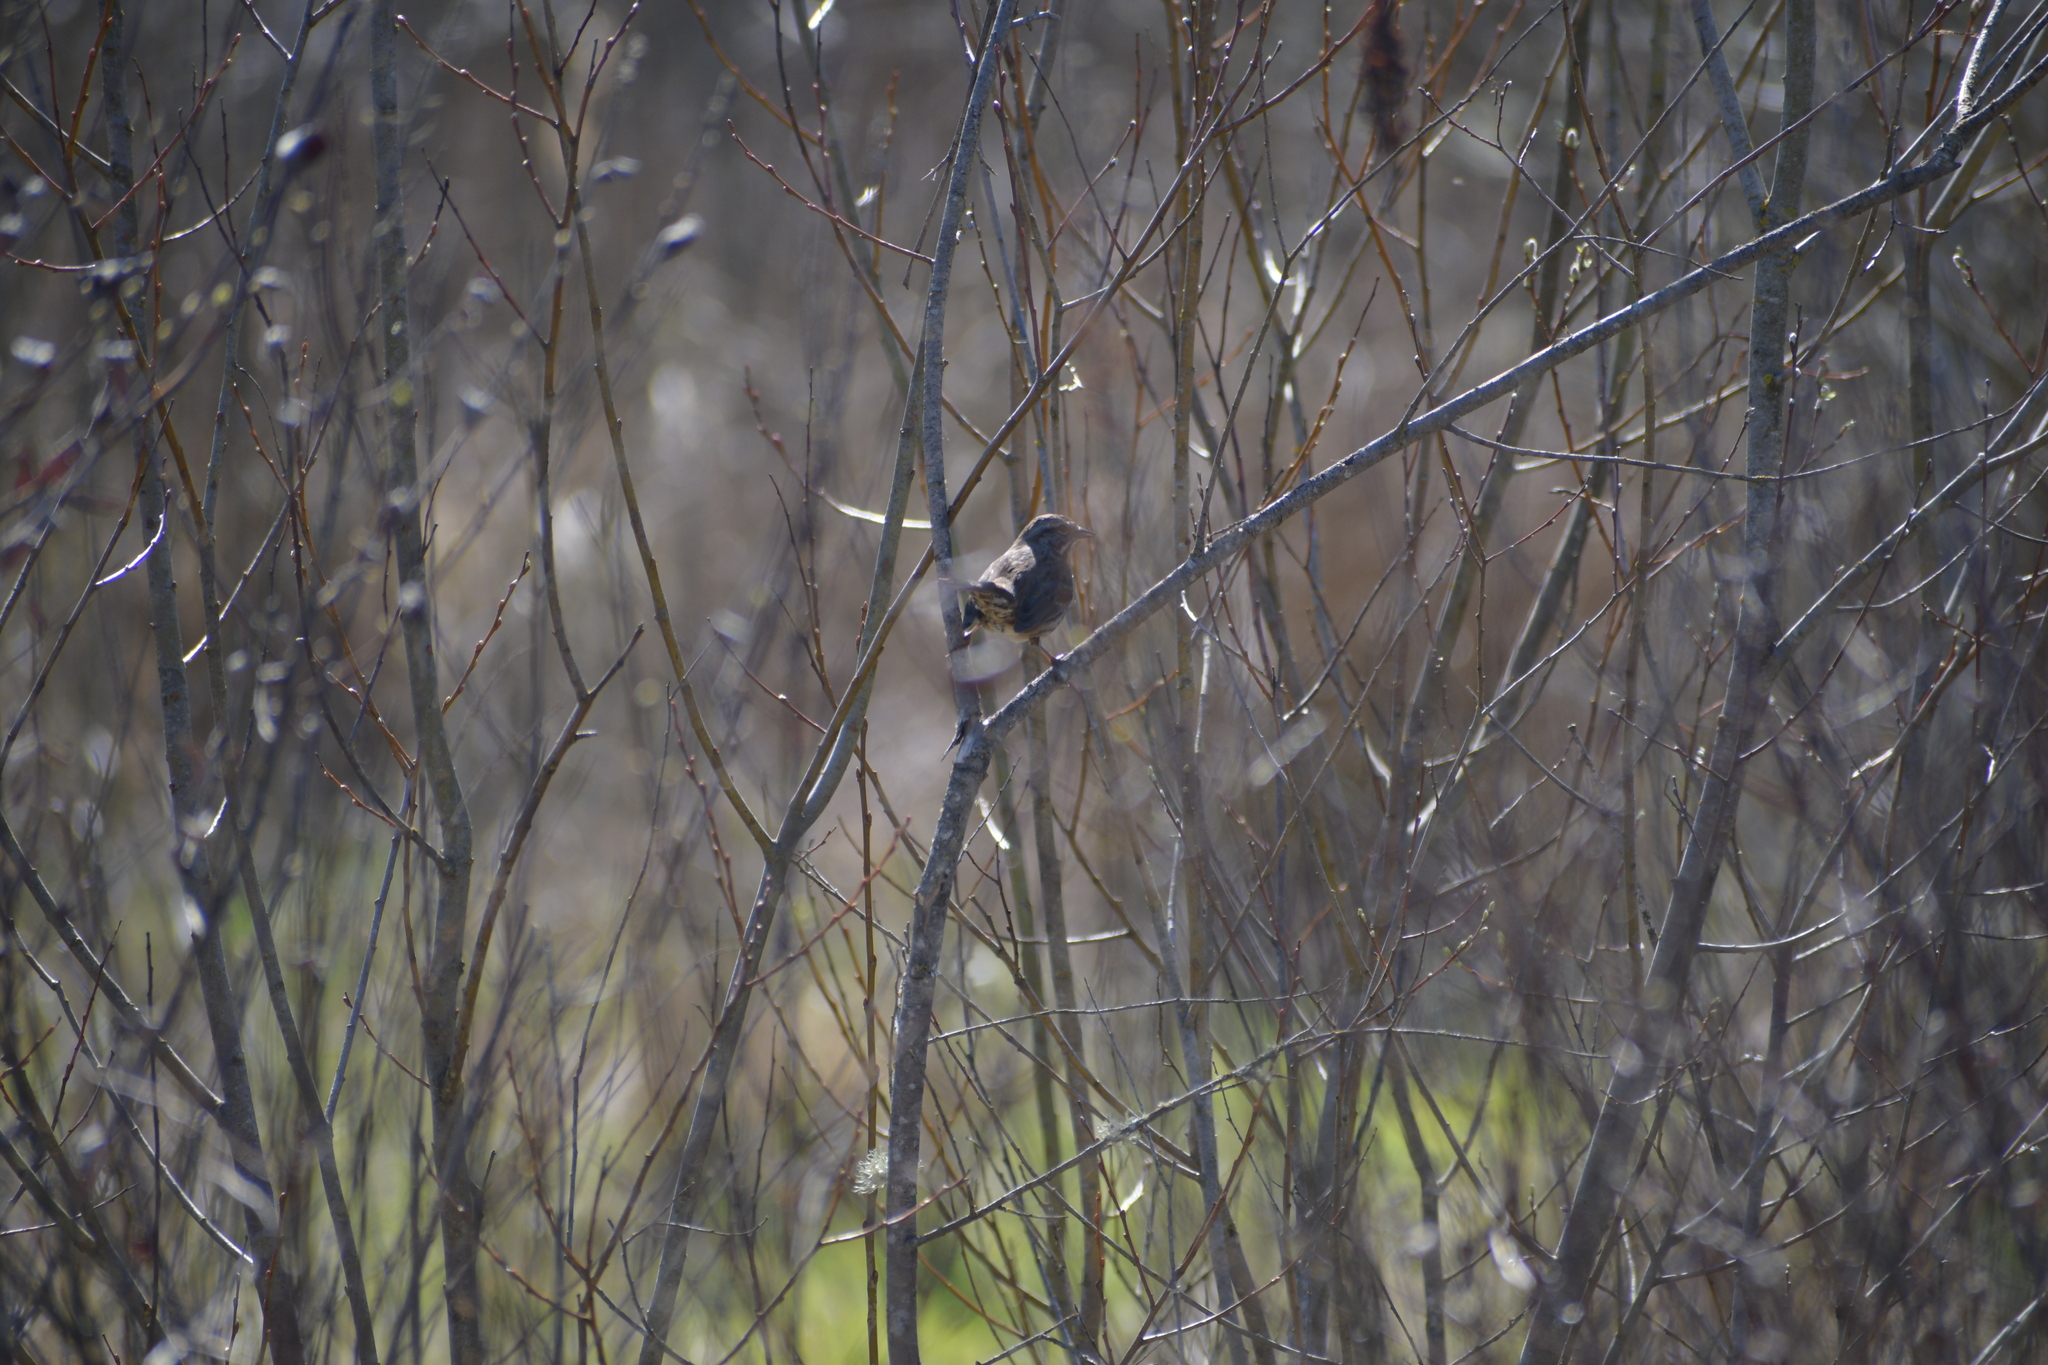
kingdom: Animalia
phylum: Chordata
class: Aves
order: Passeriformes
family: Passerellidae
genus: Melospiza
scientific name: Melospiza melodia
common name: Song sparrow
